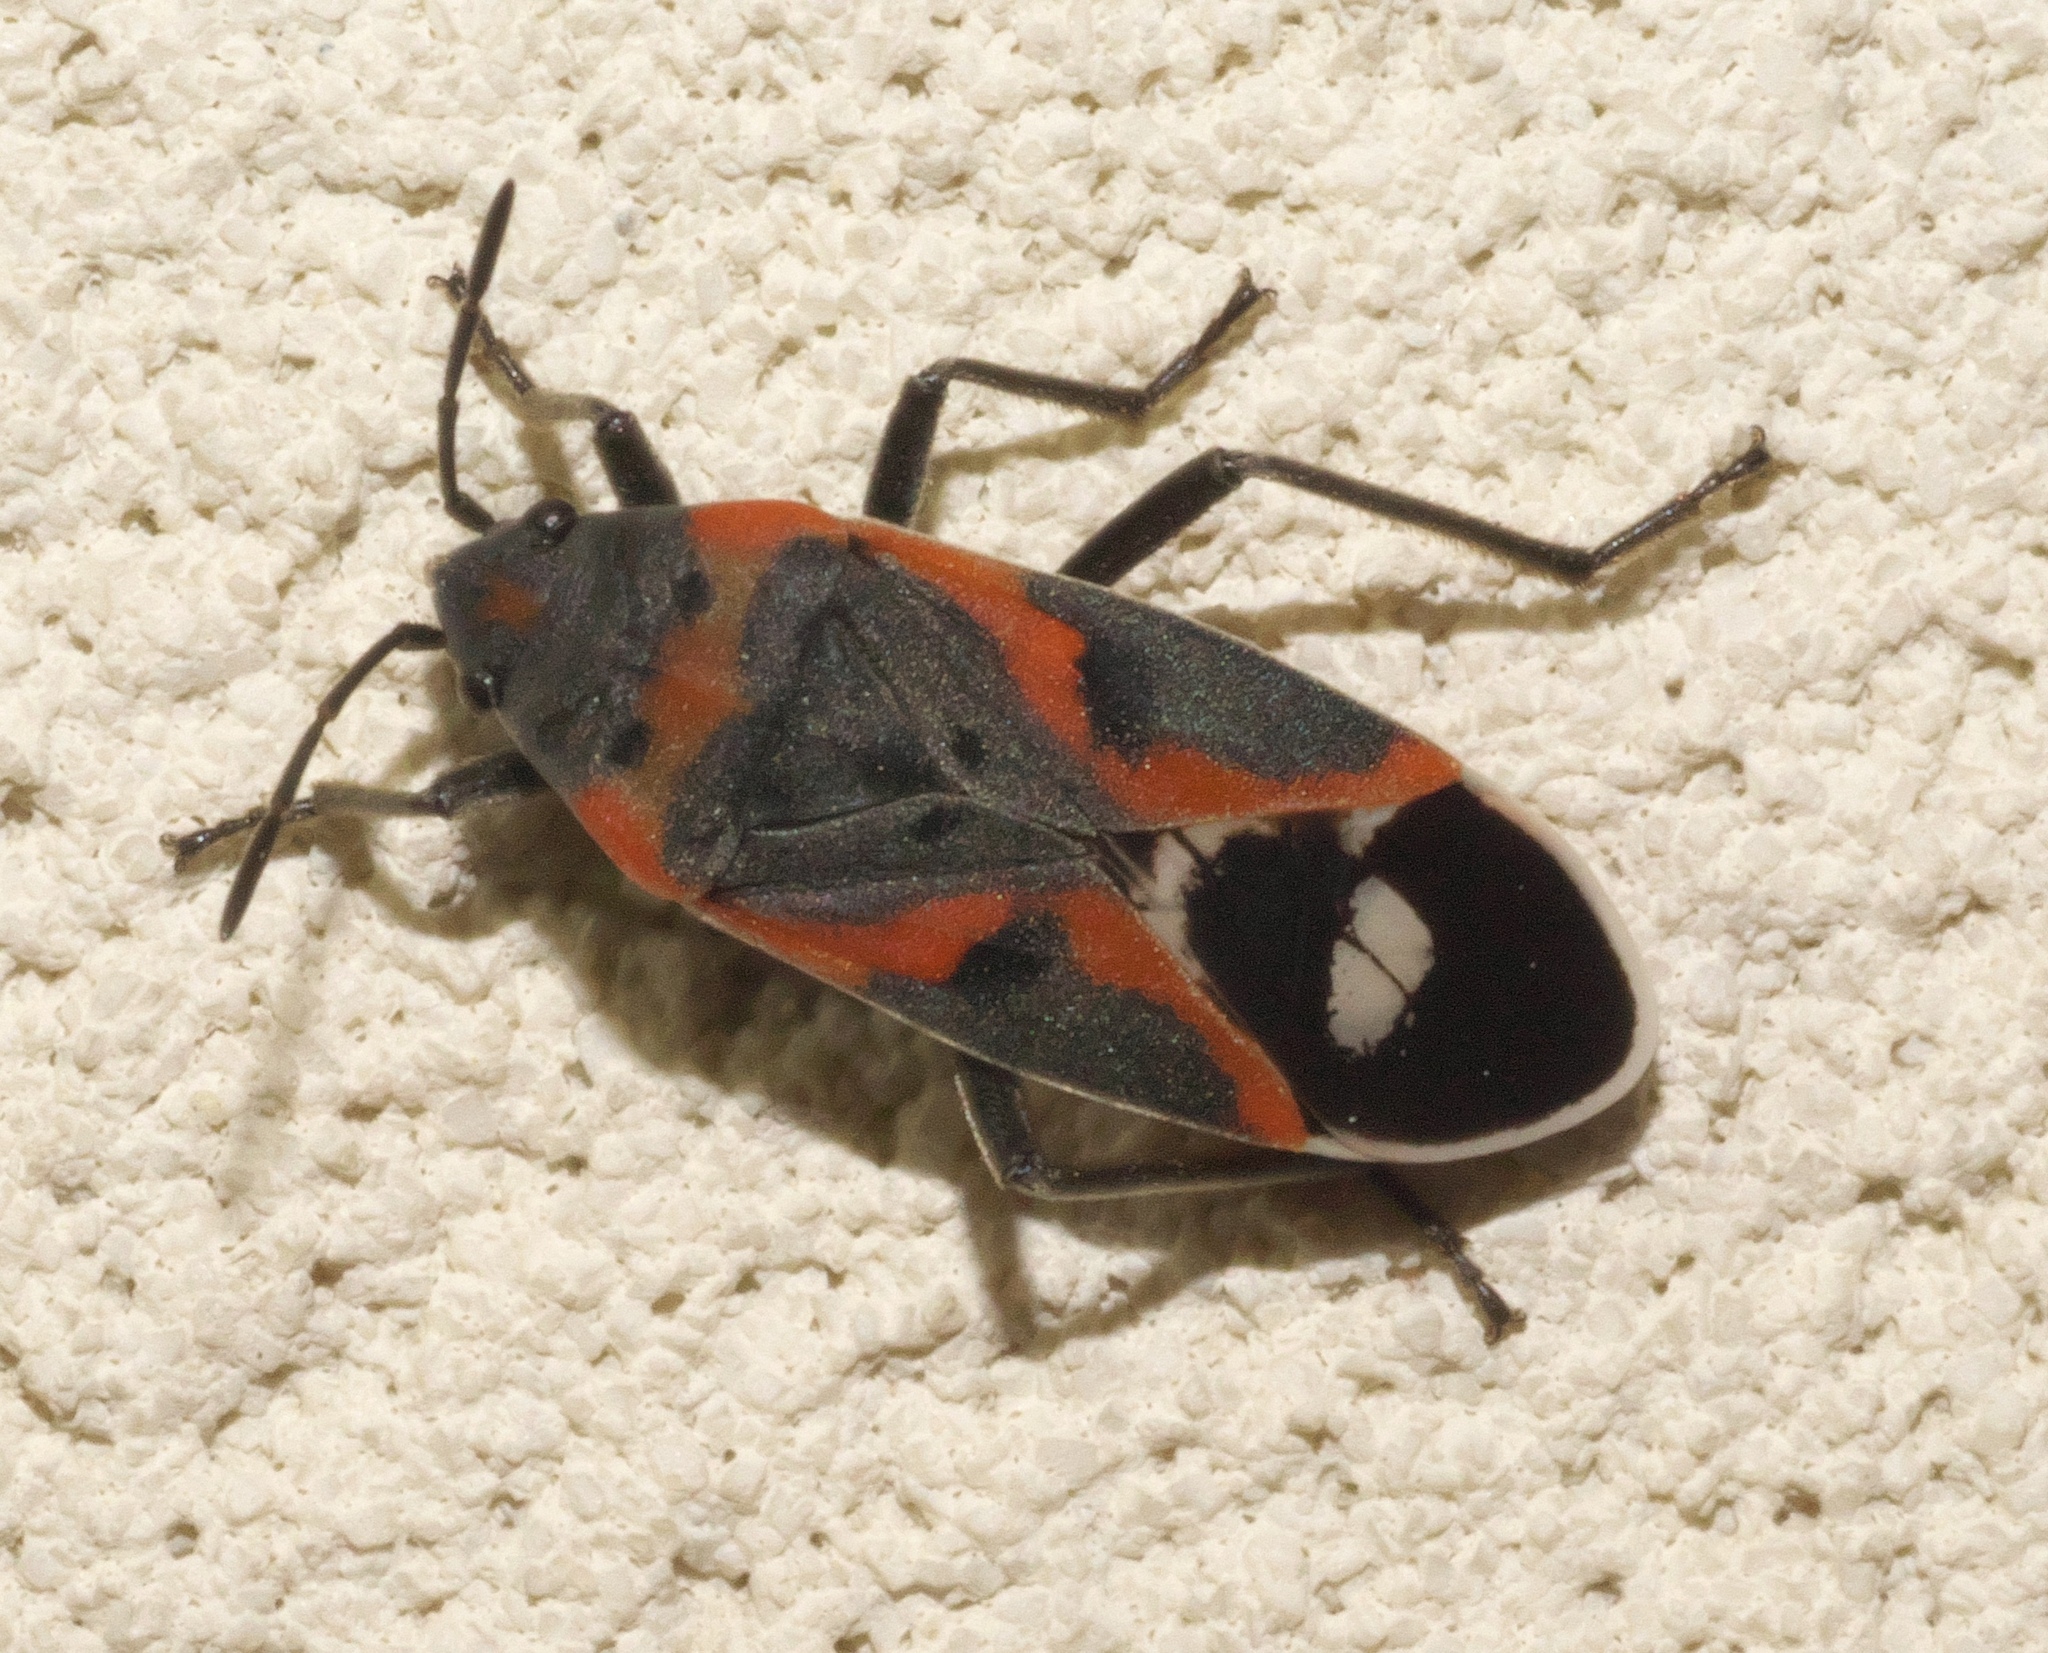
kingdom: Animalia
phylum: Arthropoda
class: Insecta
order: Hemiptera
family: Lygaeidae
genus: Lygaeus
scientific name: Lygaeus kalmii
